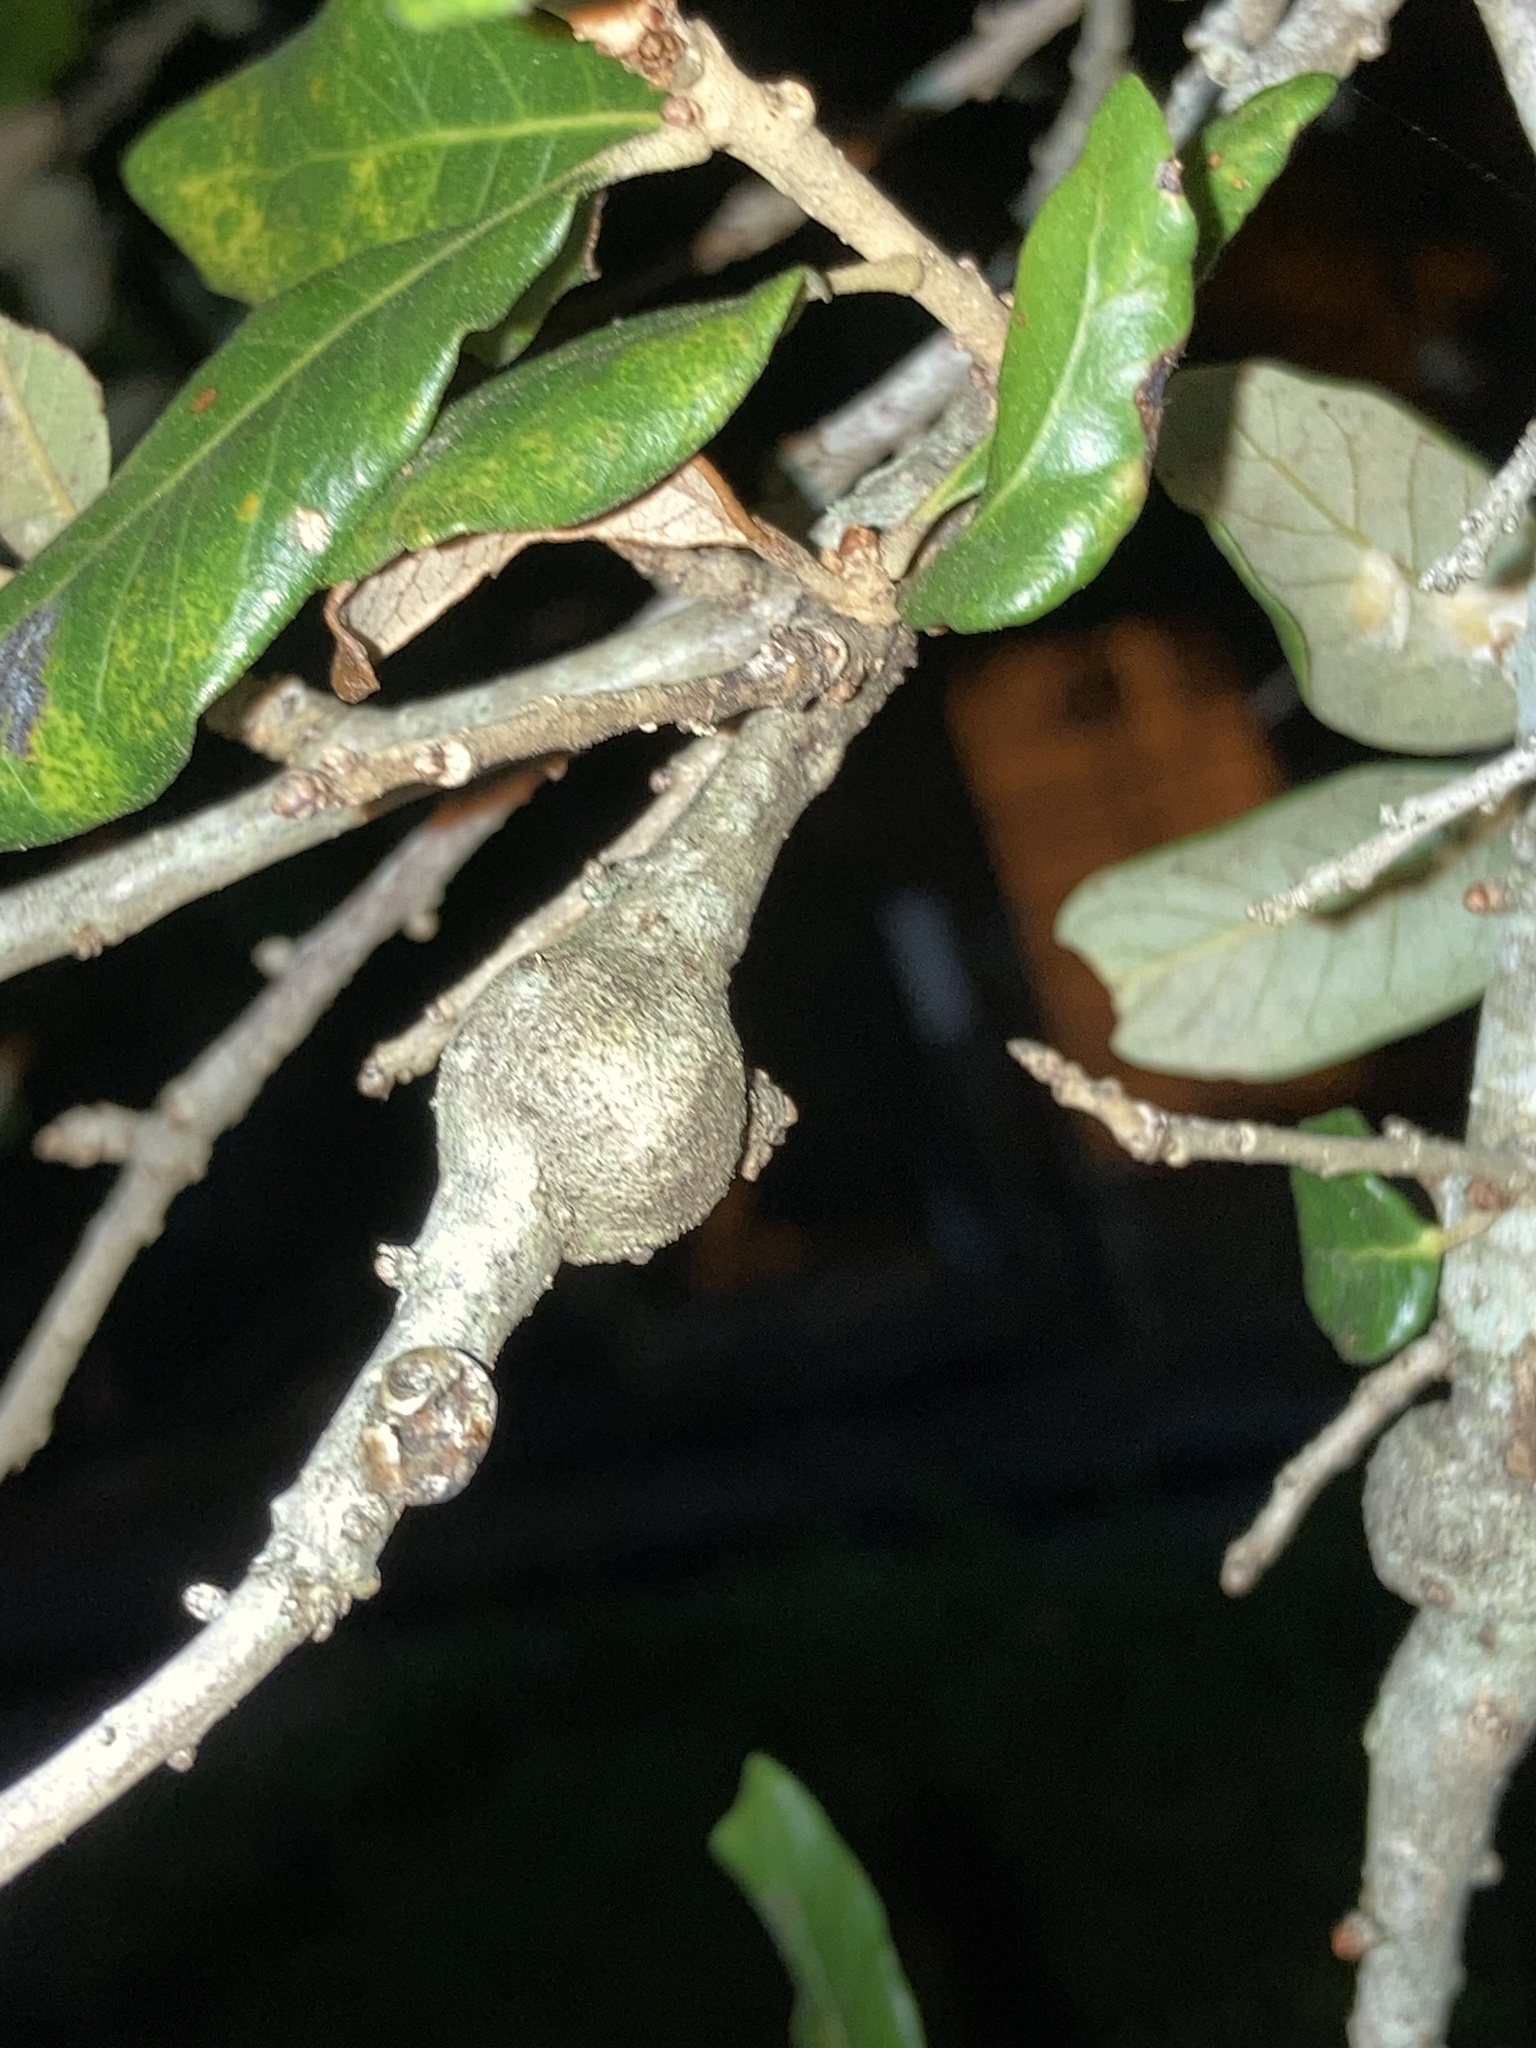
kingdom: Animalia
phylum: Arthropoda
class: Insecta
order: Hymenoptera
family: Cynipidae
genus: Callirhytis
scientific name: Callirhytis
